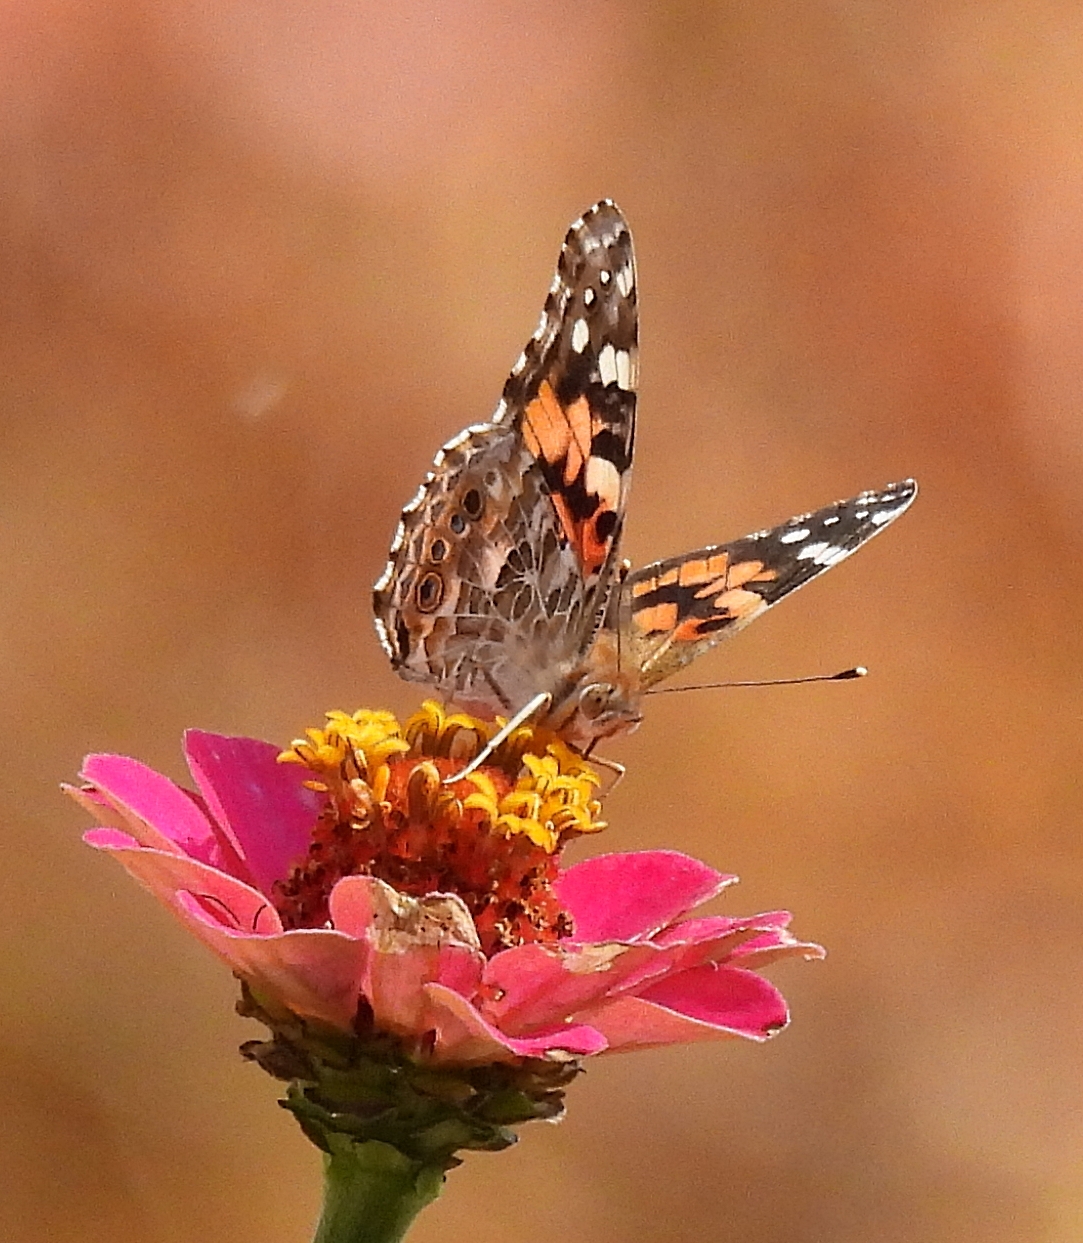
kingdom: Animalia
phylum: Arthropoda
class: Insecta
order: Lepidoptera
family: Nymphalidae
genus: Vanessa
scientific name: Vanessa cardui
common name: Painted lady
